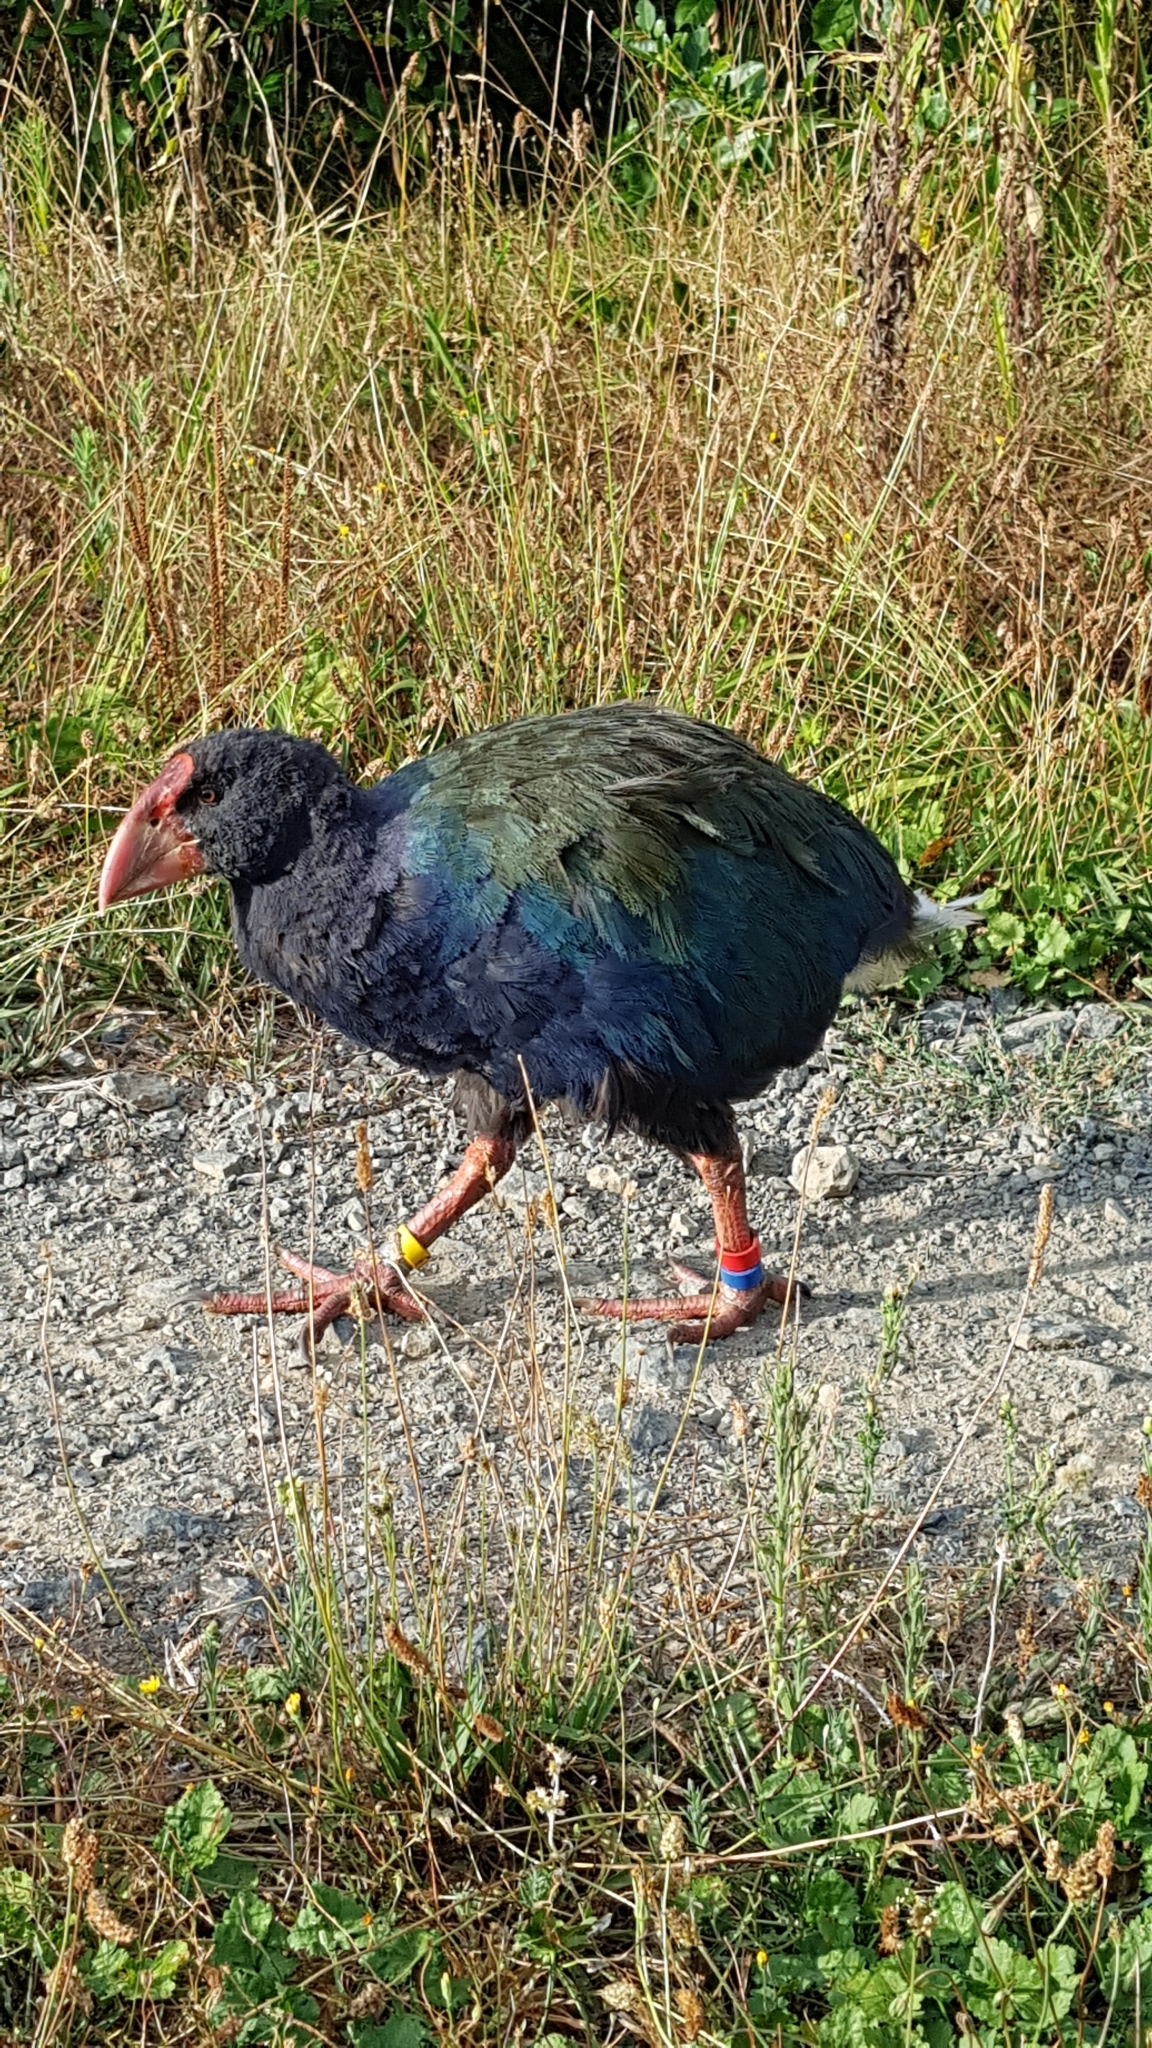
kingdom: Animalia
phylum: Chordata
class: Aves
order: Gruiformes
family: Rallidae
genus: Porphyrio
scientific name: Porphyrio hochstetteri
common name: South island takahe
